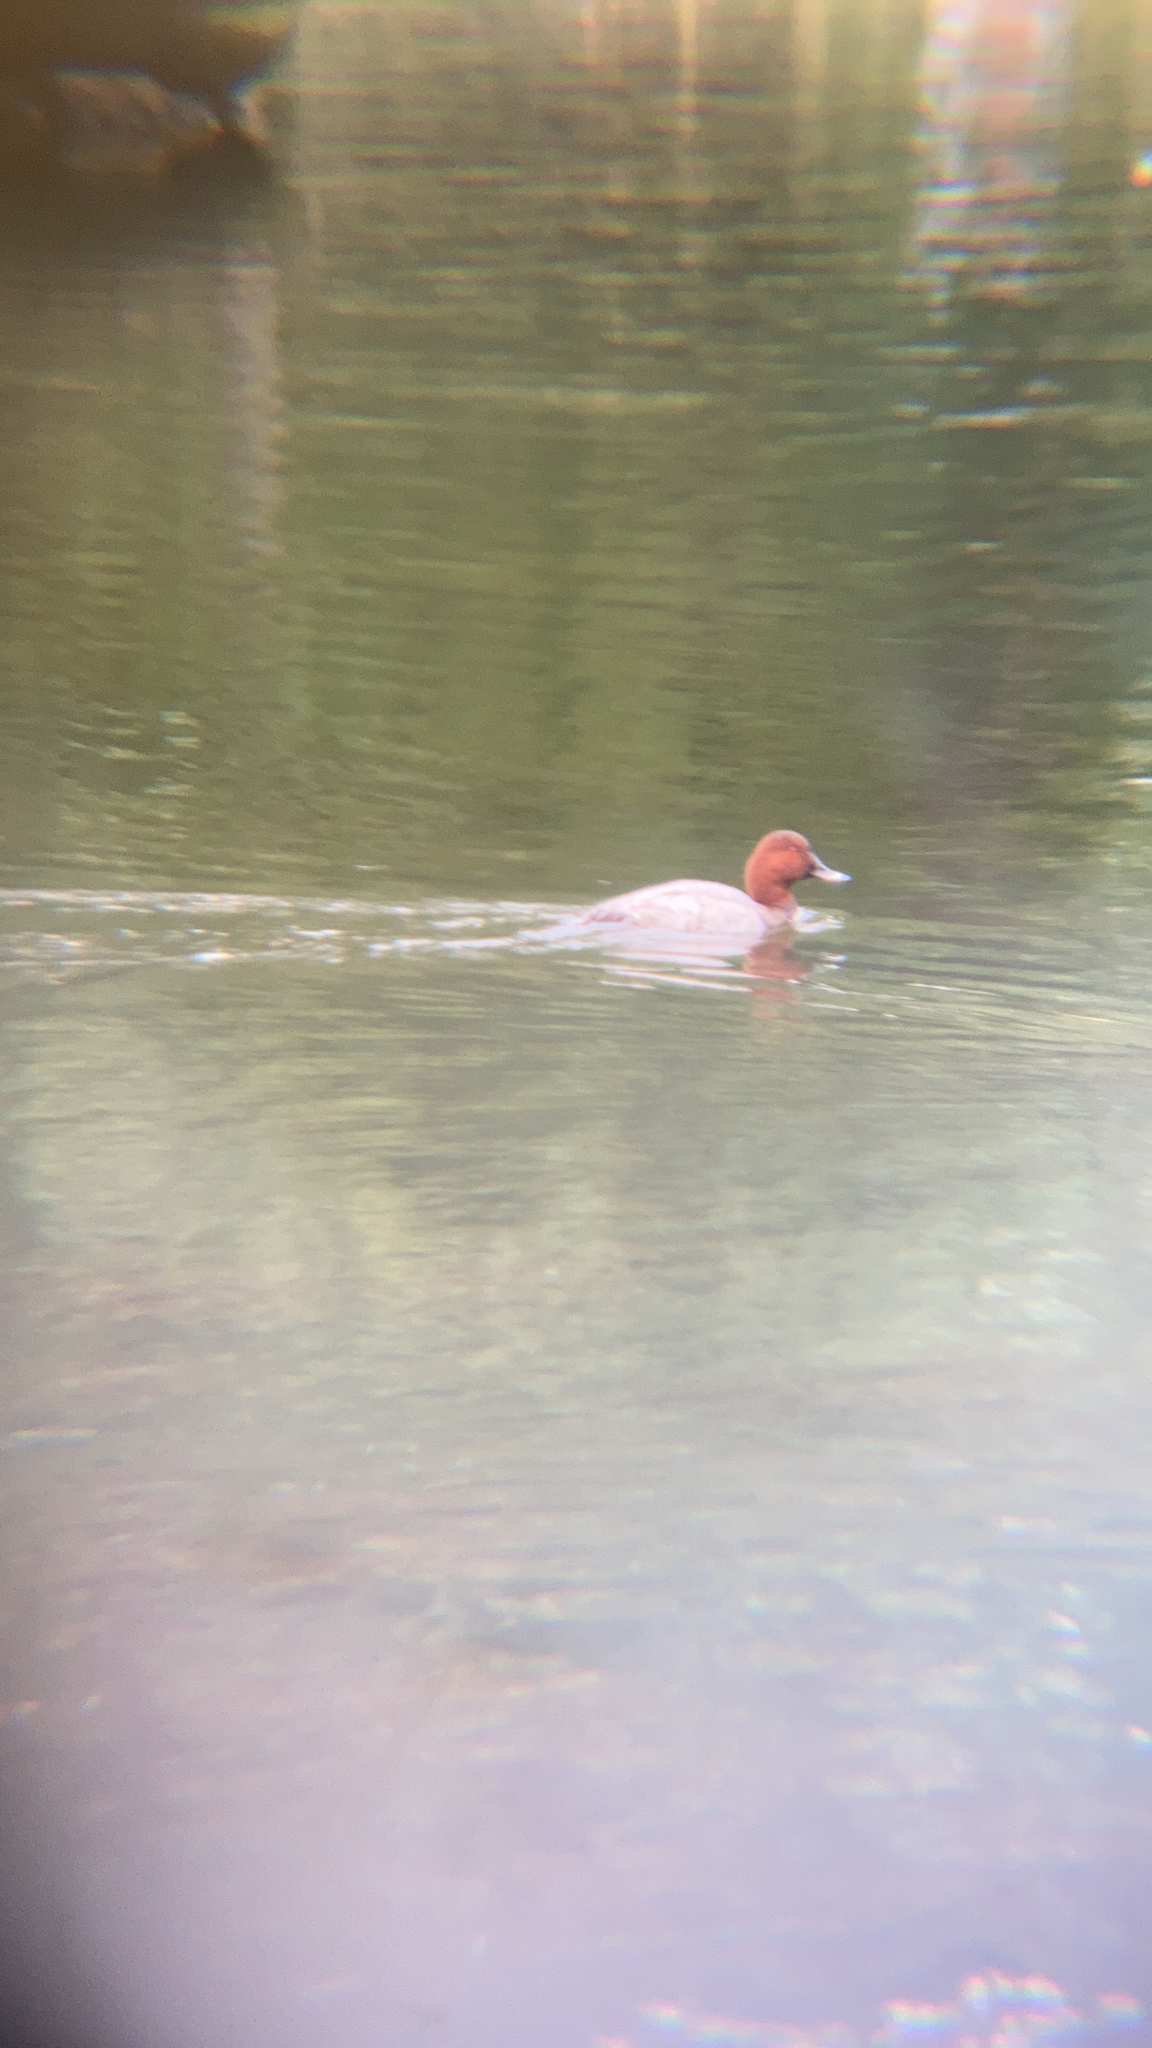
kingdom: Animalia
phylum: Chordata
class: Aves
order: Anseriformes
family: Anatidae
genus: Aythya
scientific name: Aythya ferina
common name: Common pochard
